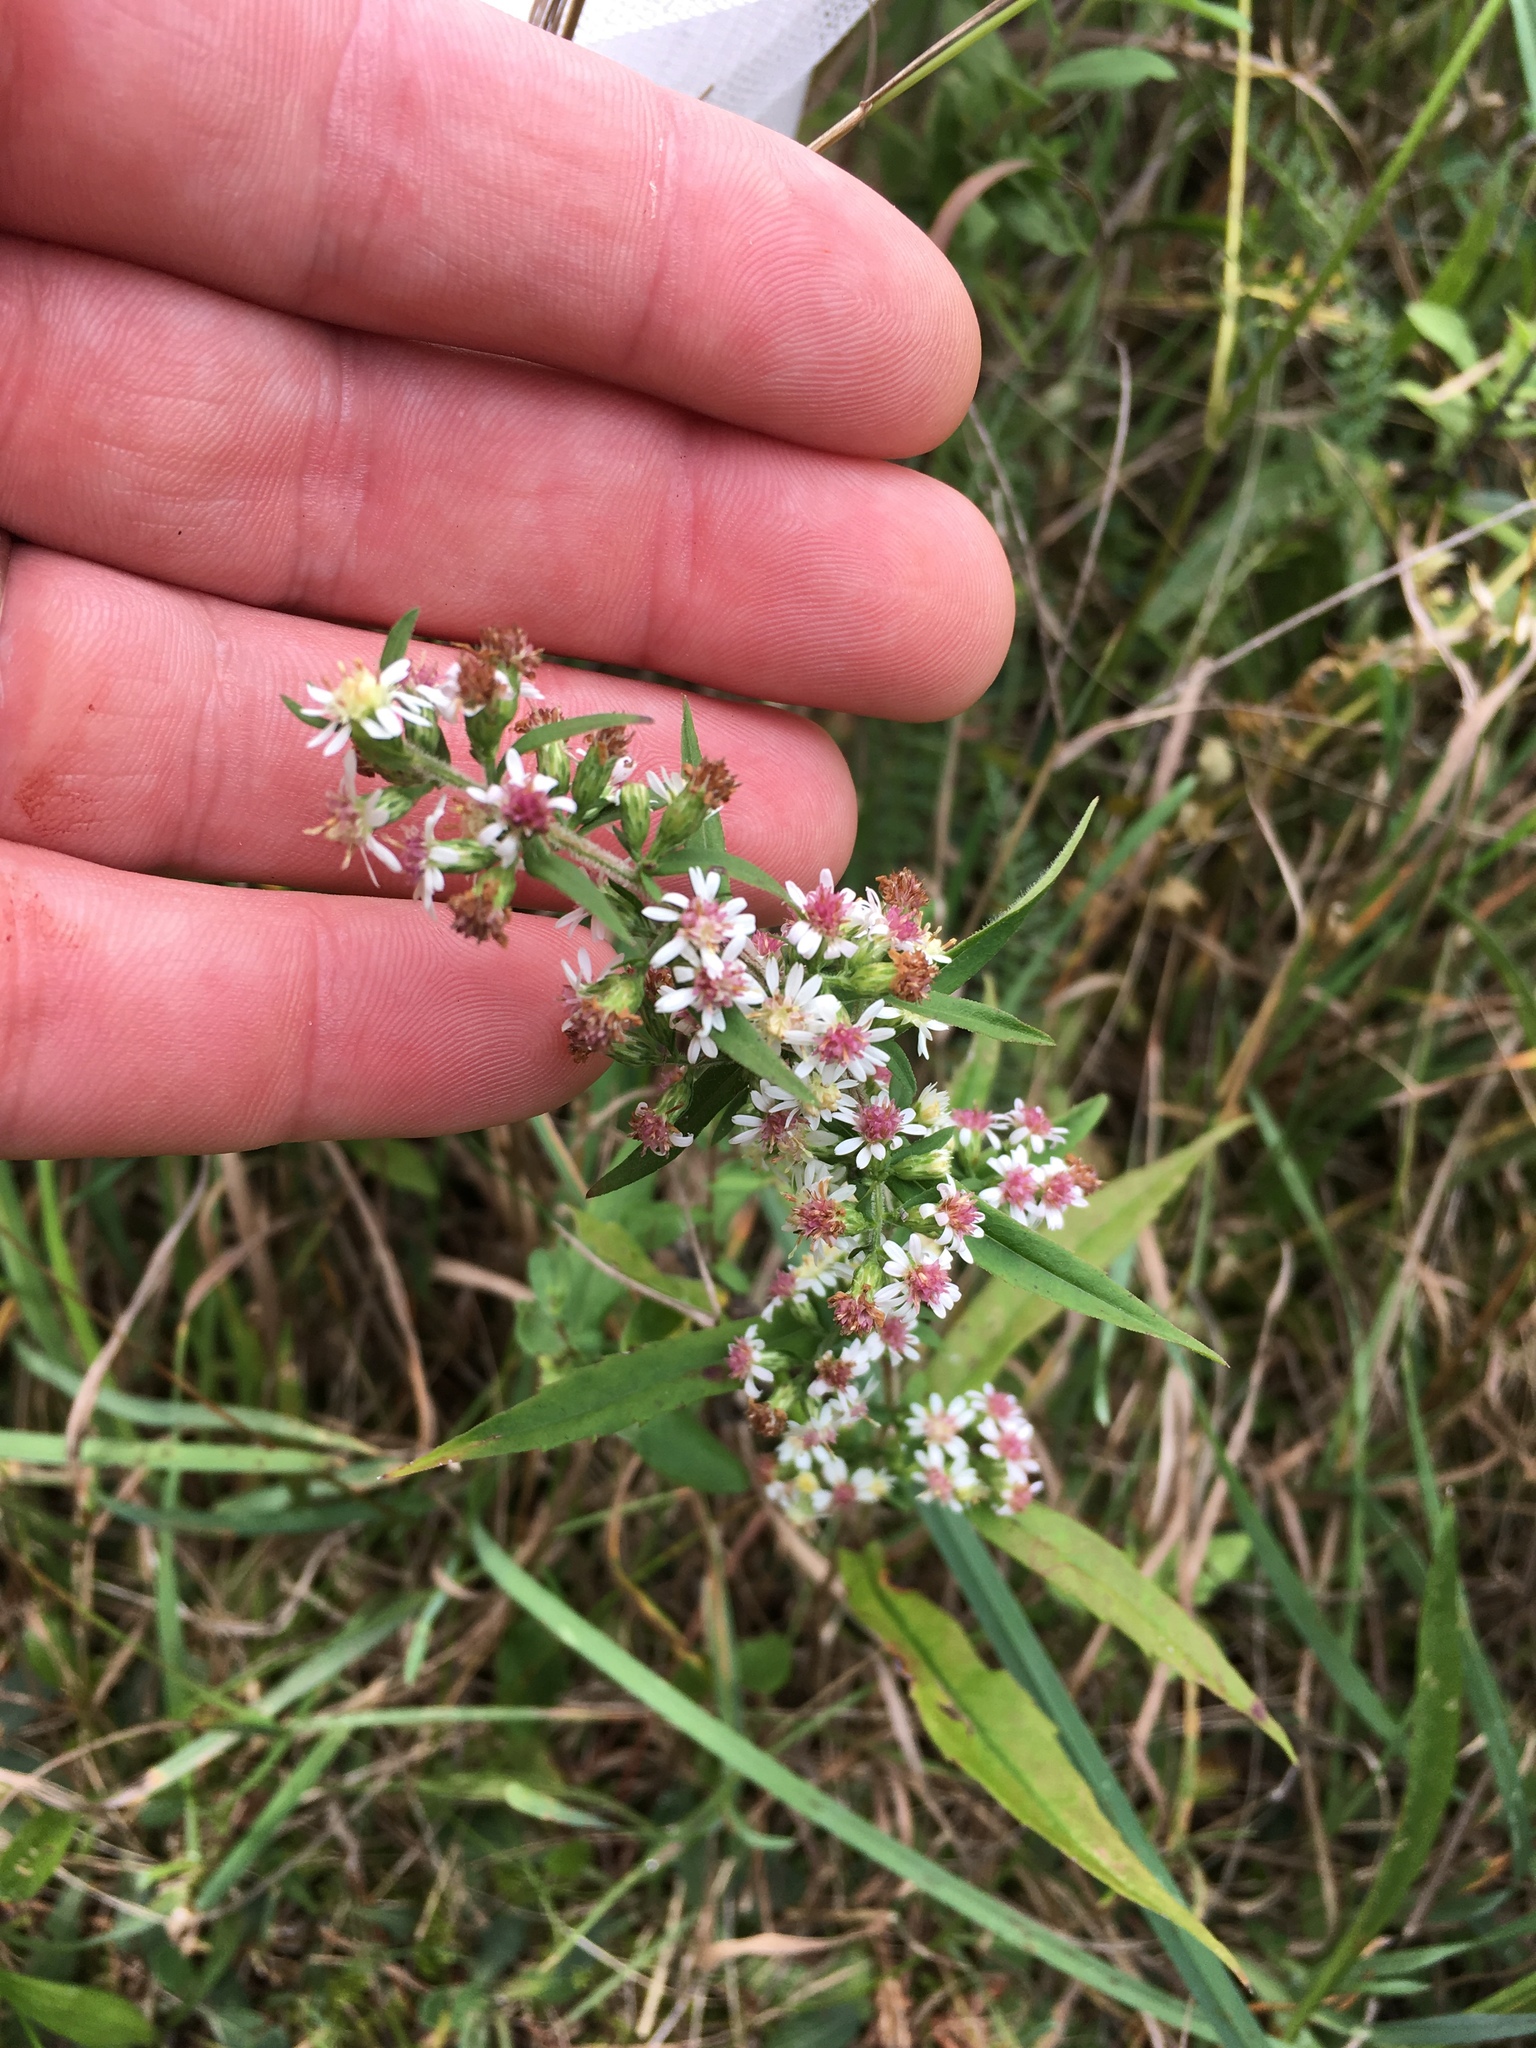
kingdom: Plantae
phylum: Tracheophyta
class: Magnoliopsida
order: Asterales
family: Asteraceae
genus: Symphyotrichum
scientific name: Symphyotrichum lateriflorum
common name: Calico aster
